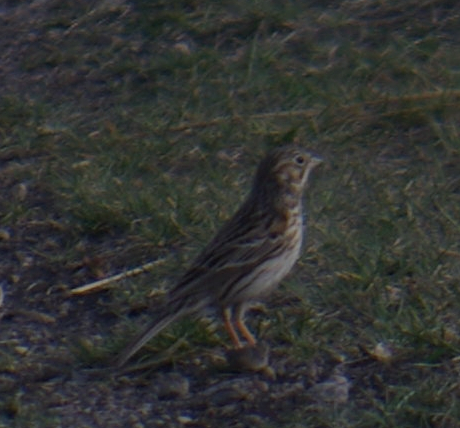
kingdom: Animalia
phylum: Chordata
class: Aves
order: Passeriformes
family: Passerellidae
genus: Pooecetes
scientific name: Pooecetes gramineus
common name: Vesper sparrow
